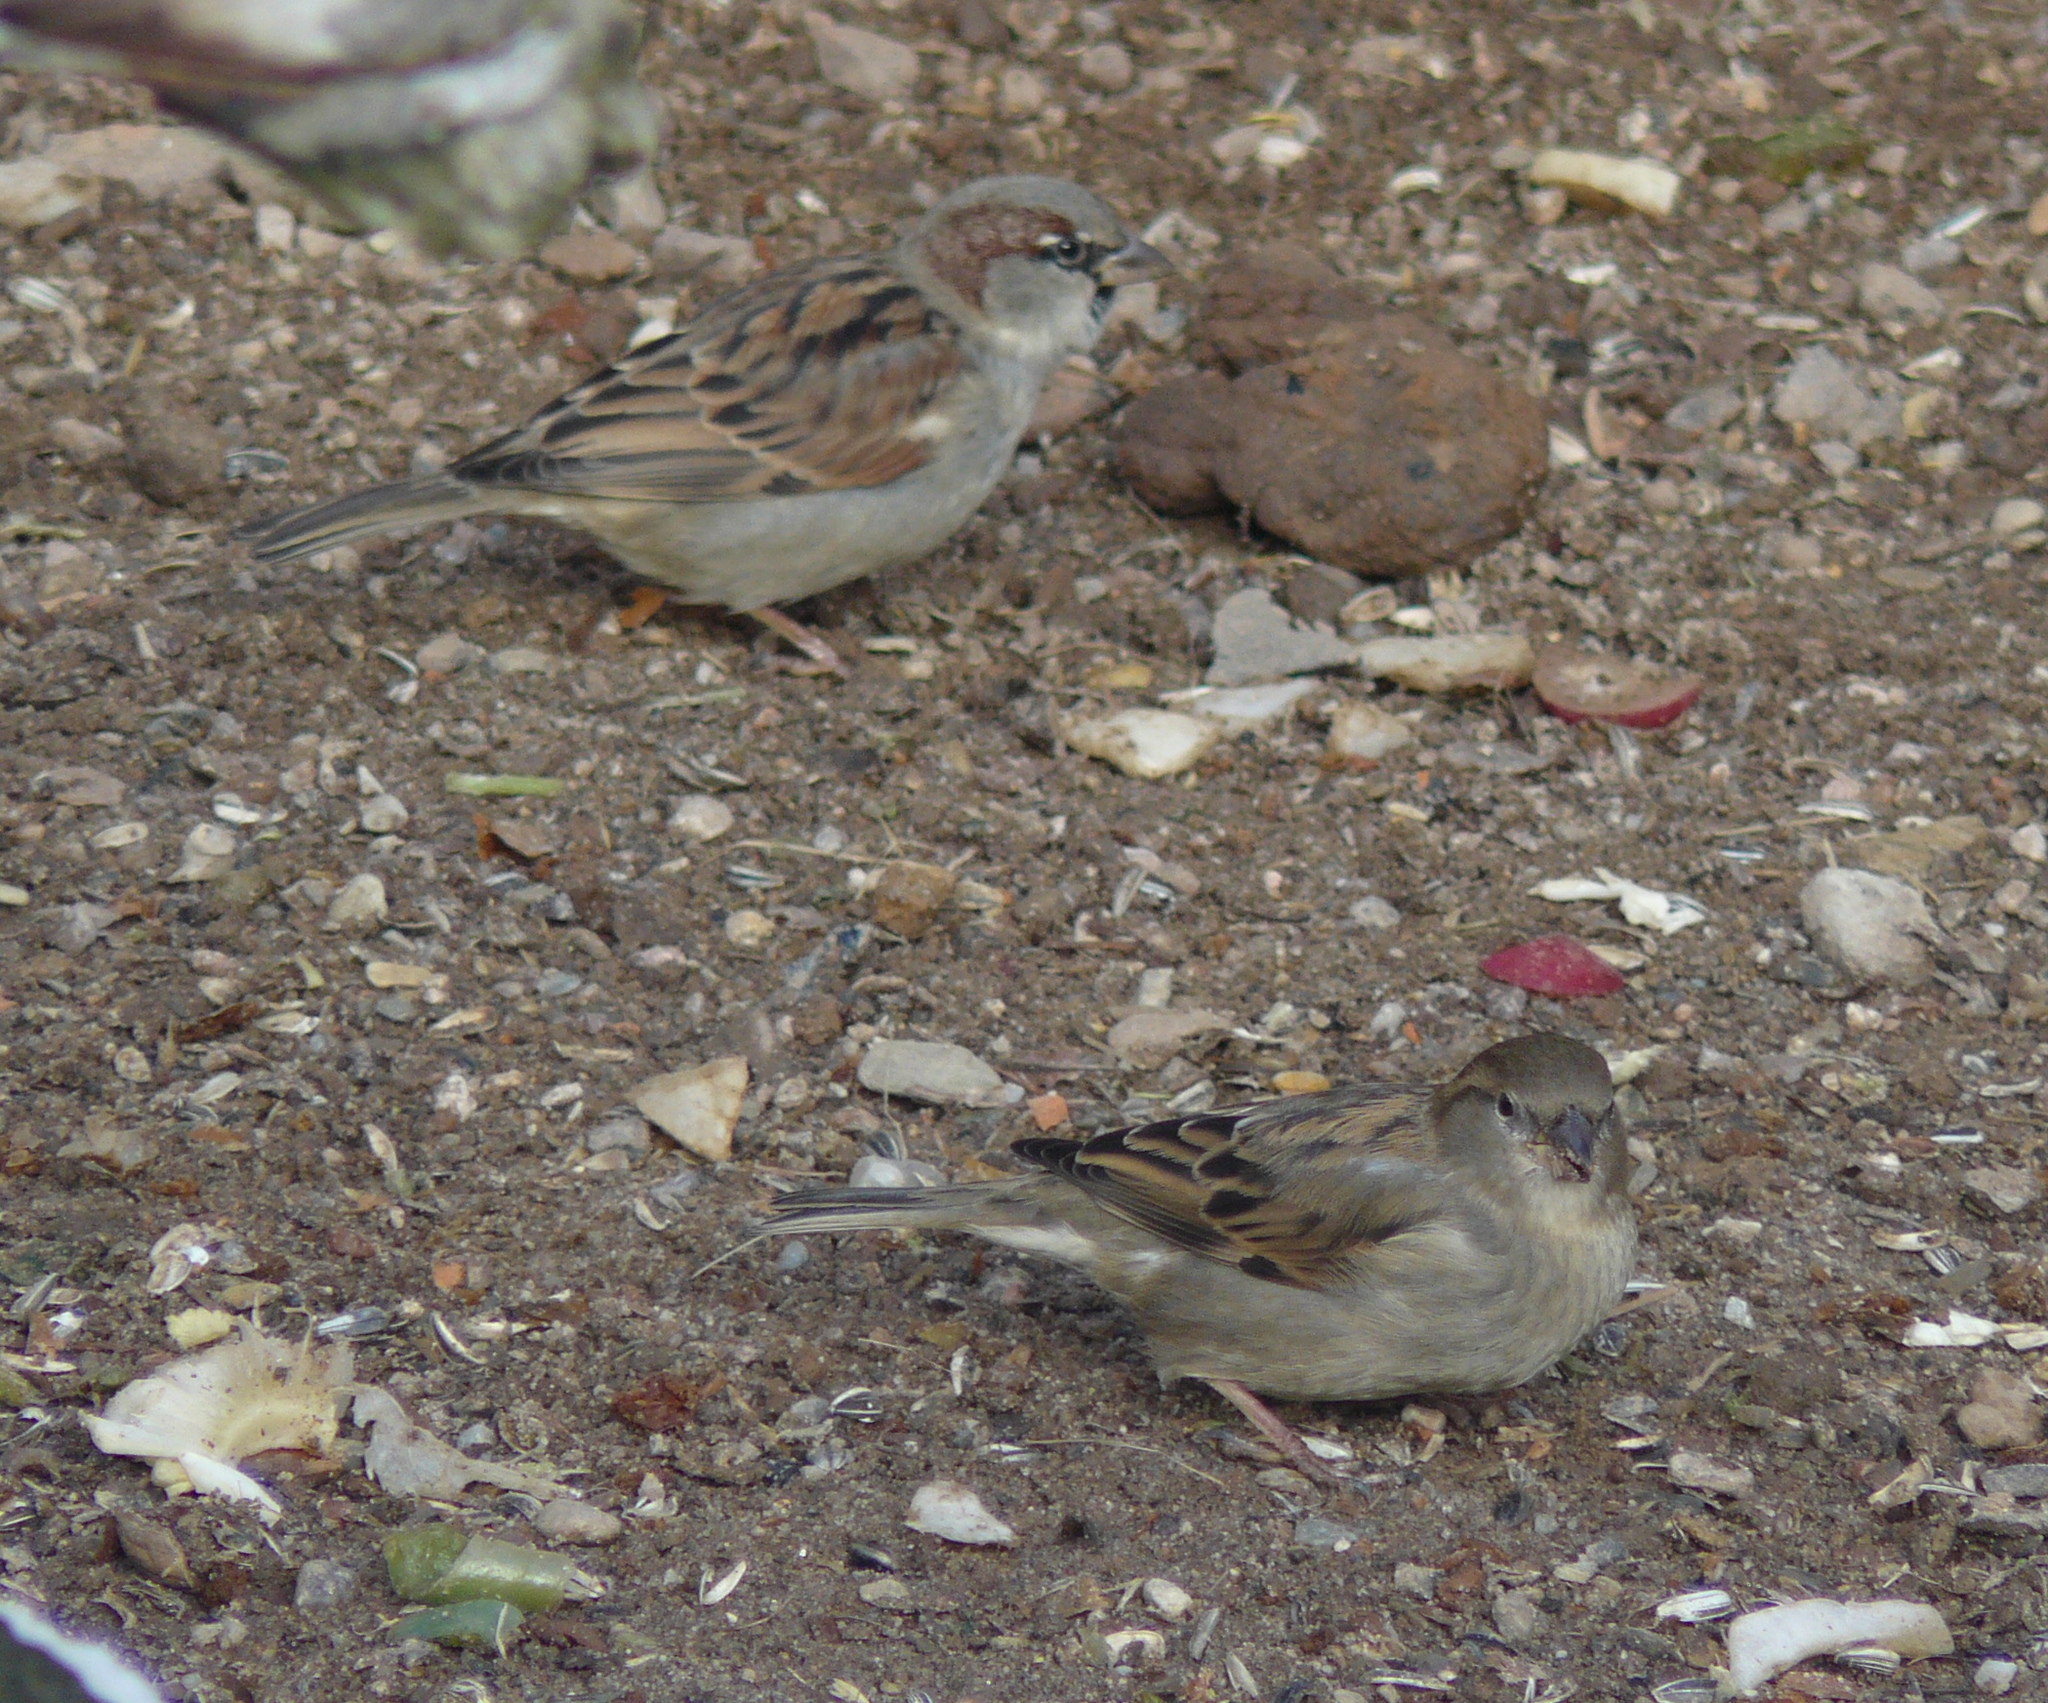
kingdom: Animalia
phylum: Chordata
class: Aves
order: Passeriformes
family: Passeridae
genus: Passer
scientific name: Passer domesticus
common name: House sparrow
